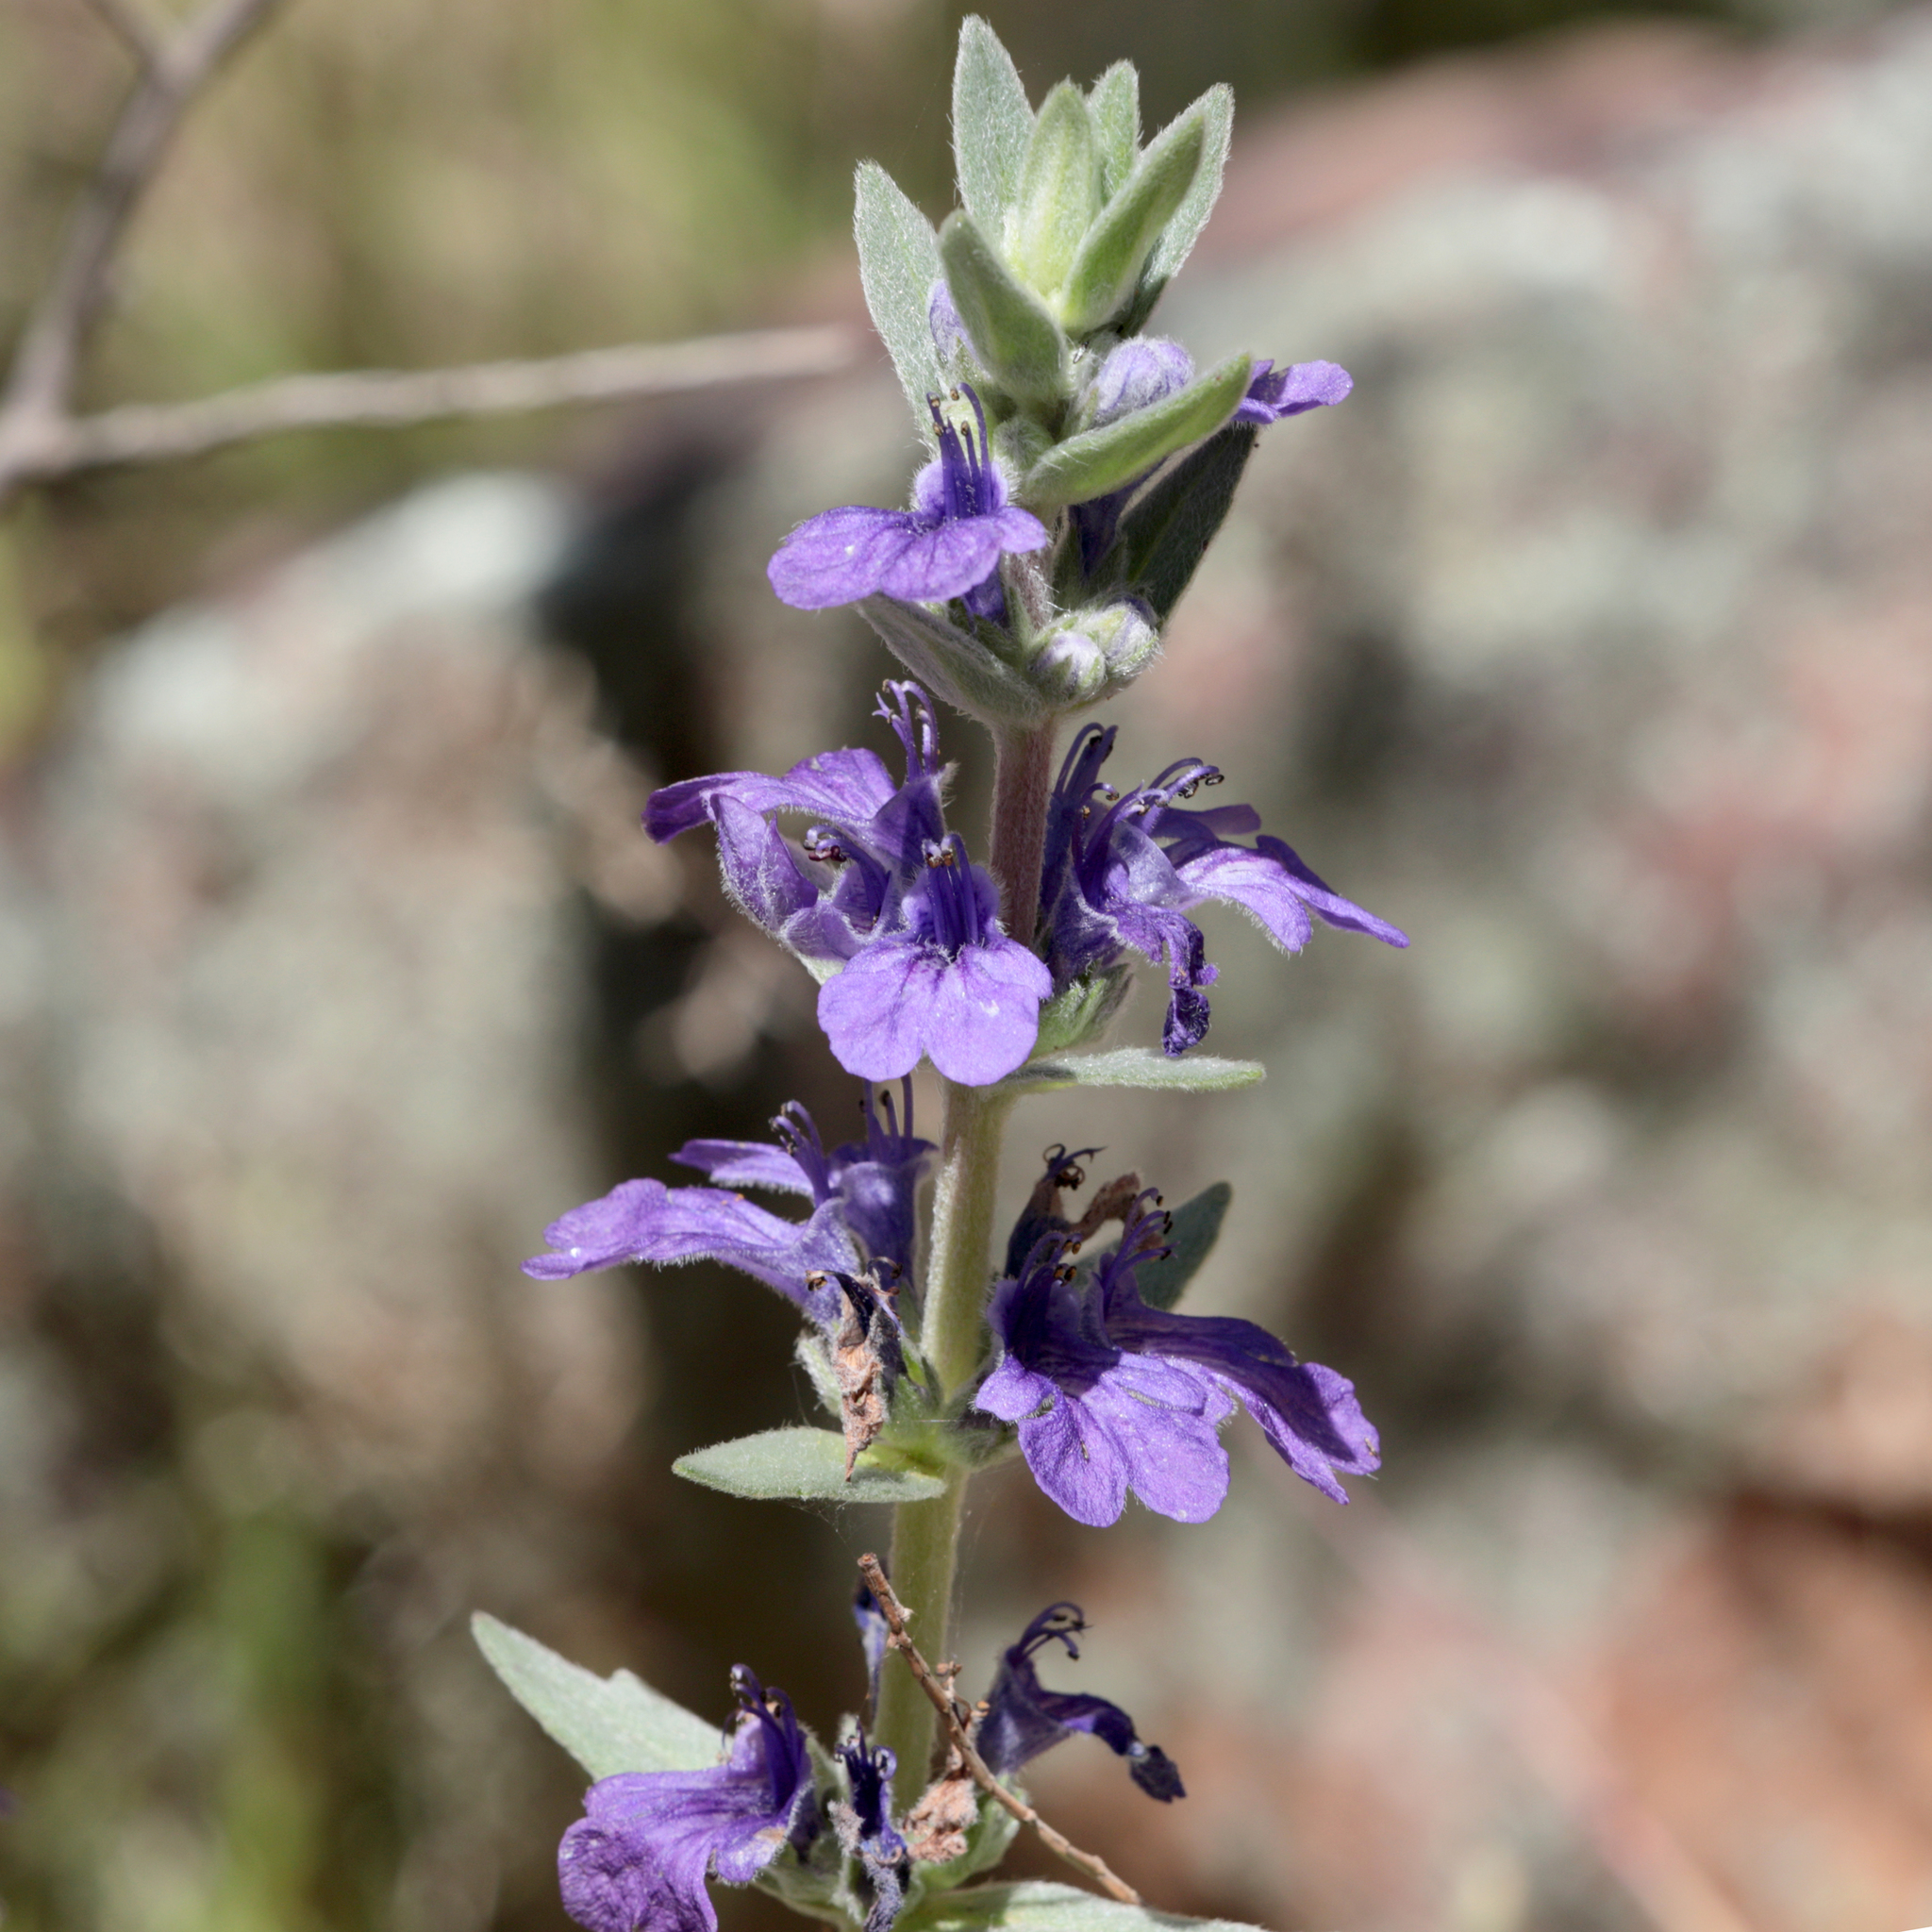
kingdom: Plantae
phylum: Tracheophyta
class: Magnoliopsida
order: Lamiales
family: Lamiaceae
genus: Ajuga
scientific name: Ajuga australis
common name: Australian bugle
